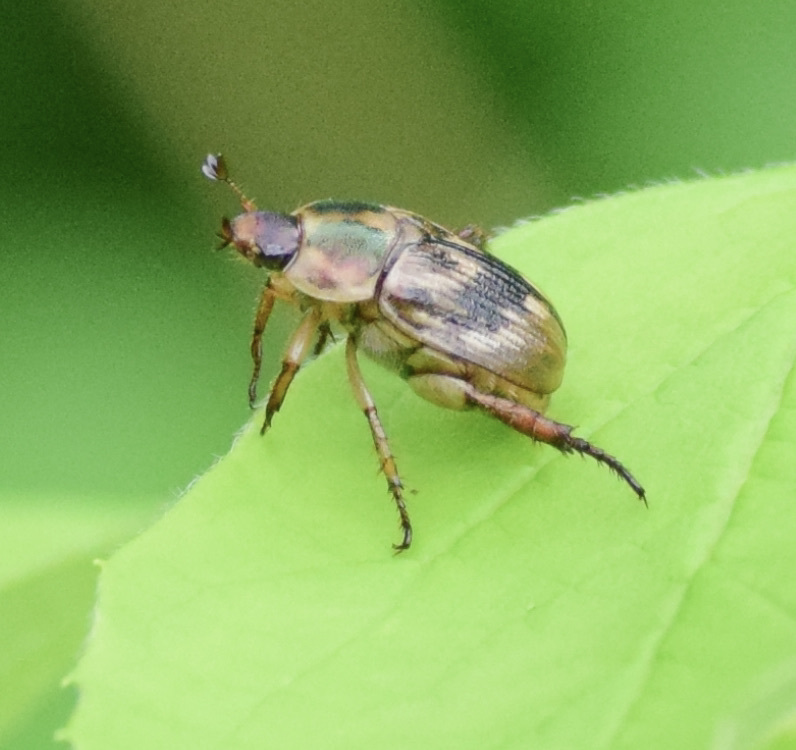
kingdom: Animalia
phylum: Arthropoda
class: Insecta
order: Coleoptera
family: Scarabaeidae
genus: Exomala
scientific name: Exomala orientalis
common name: Oriental beetle
